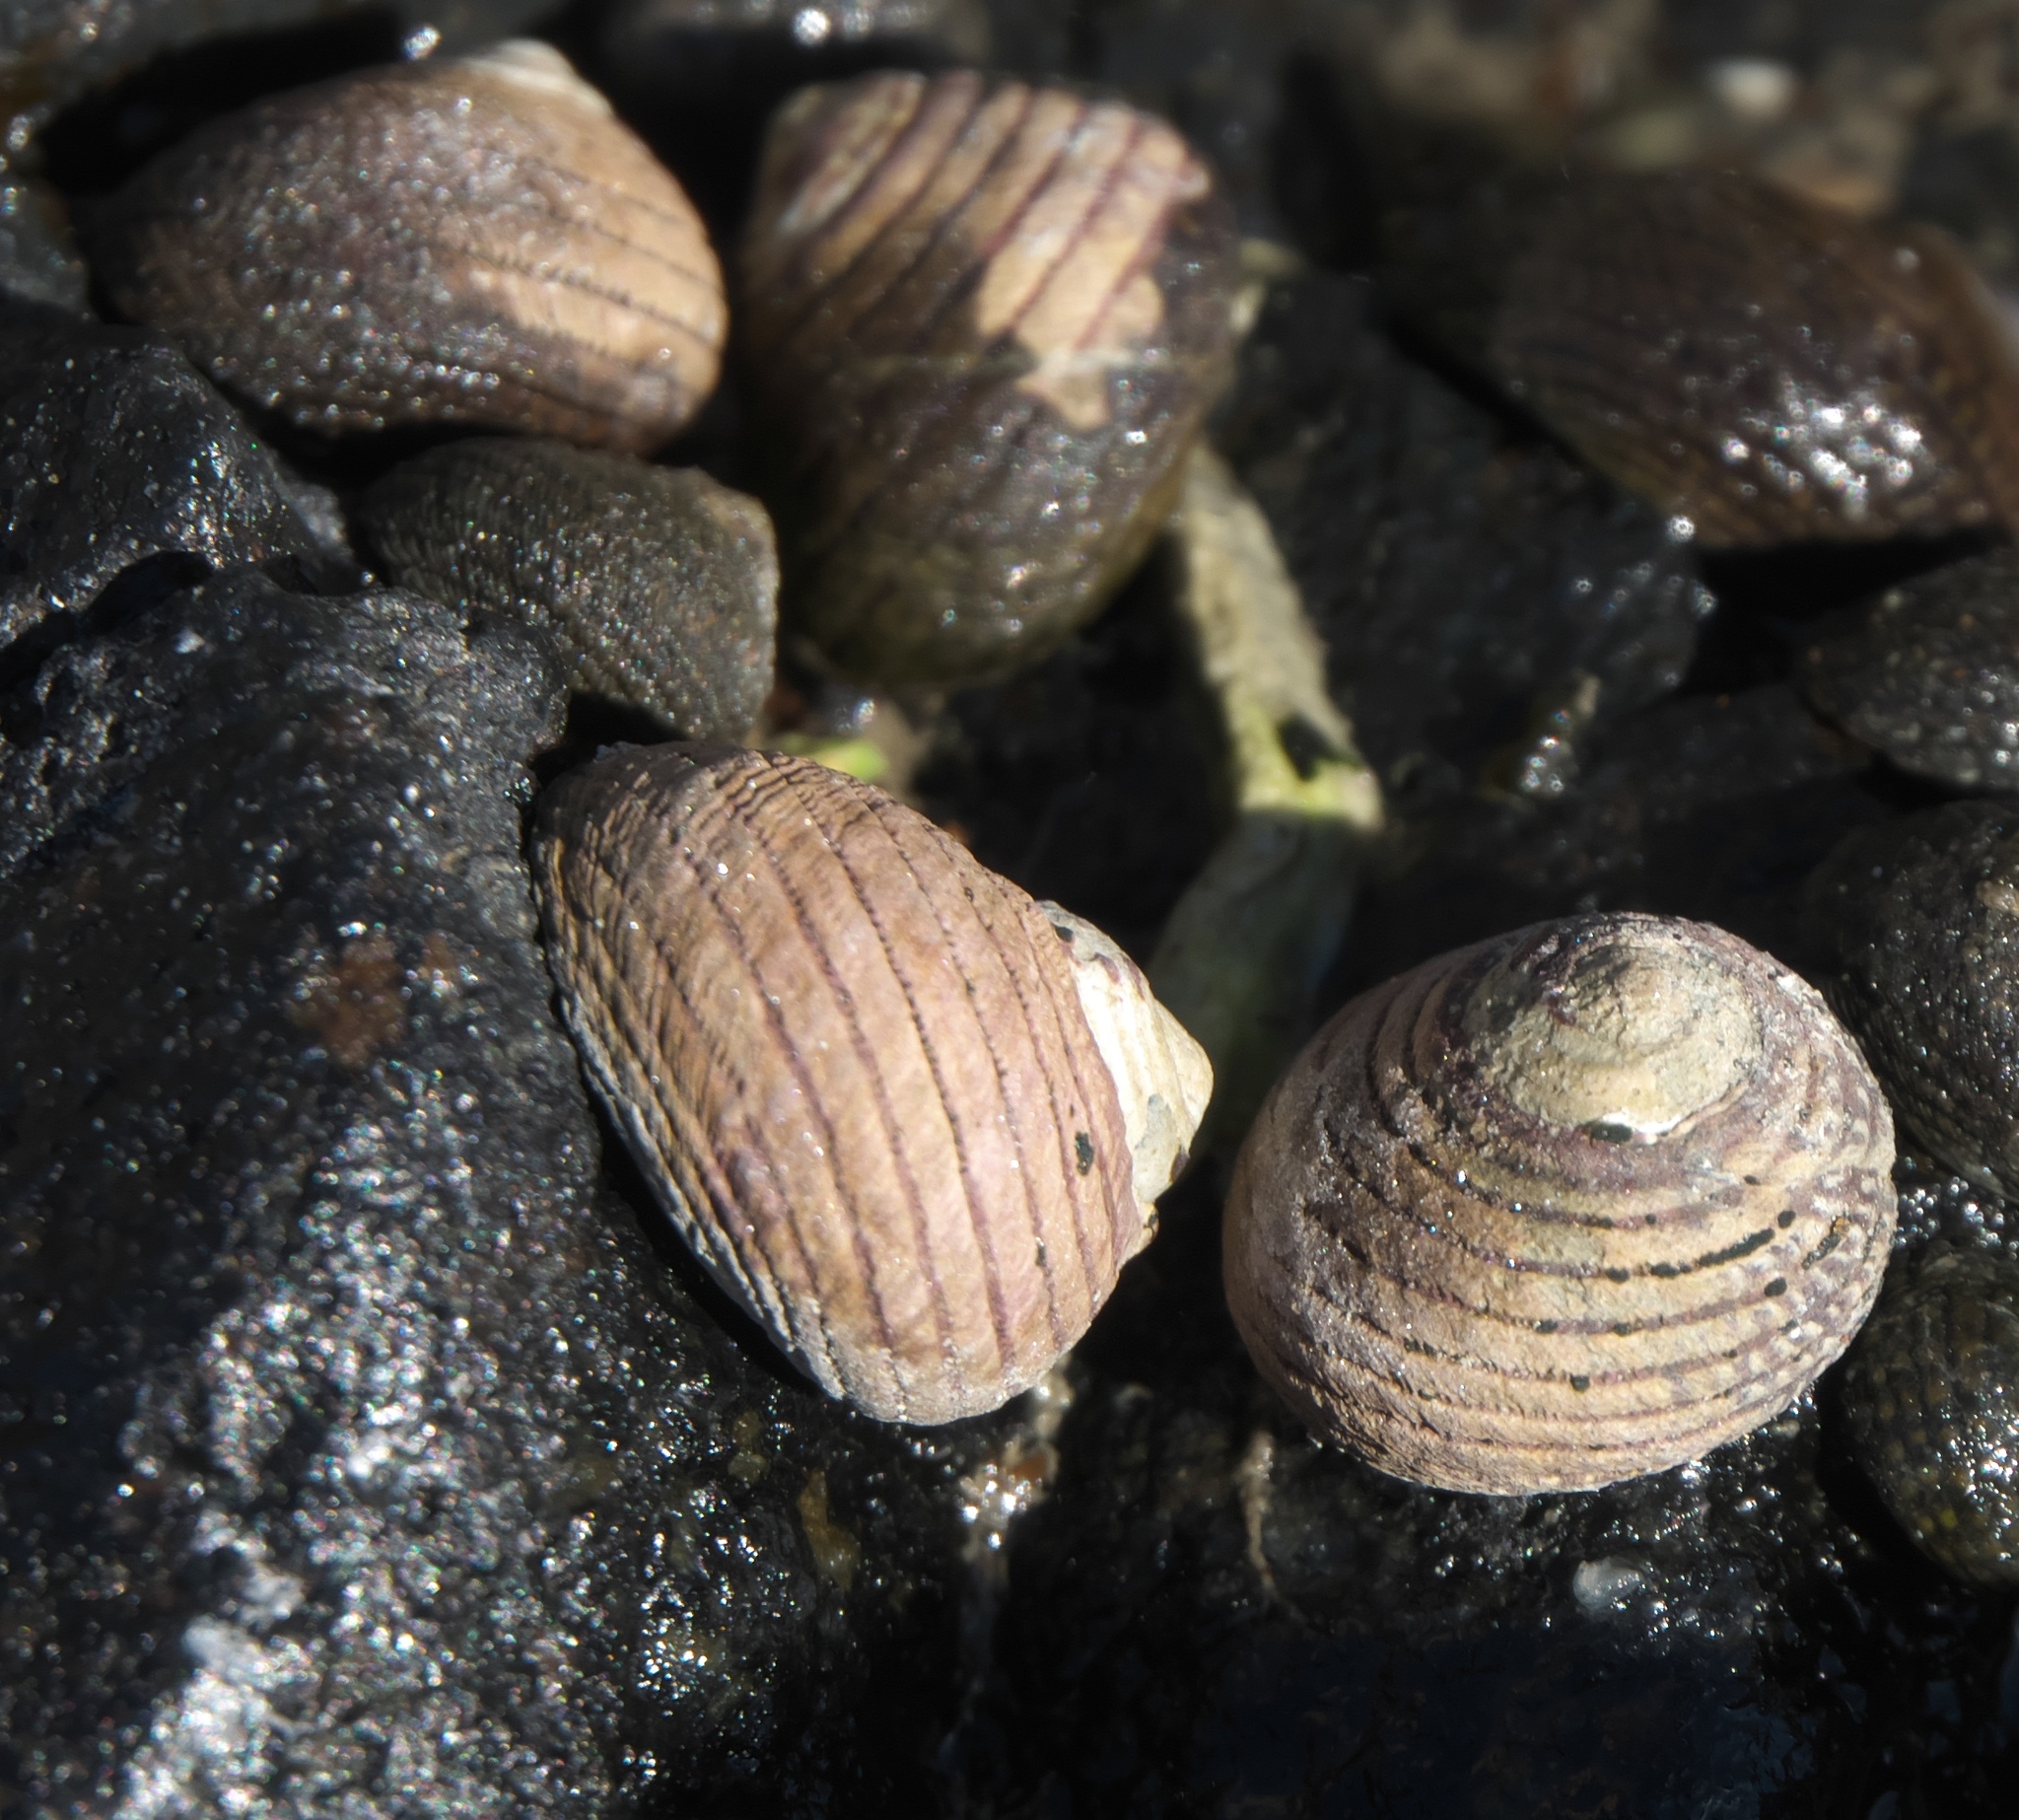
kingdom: Animalia
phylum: Mollusca
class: Gastropoda
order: Trochida
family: Trochidae
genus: Diloma
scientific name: Diloma aethiops
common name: Scorched monodont
